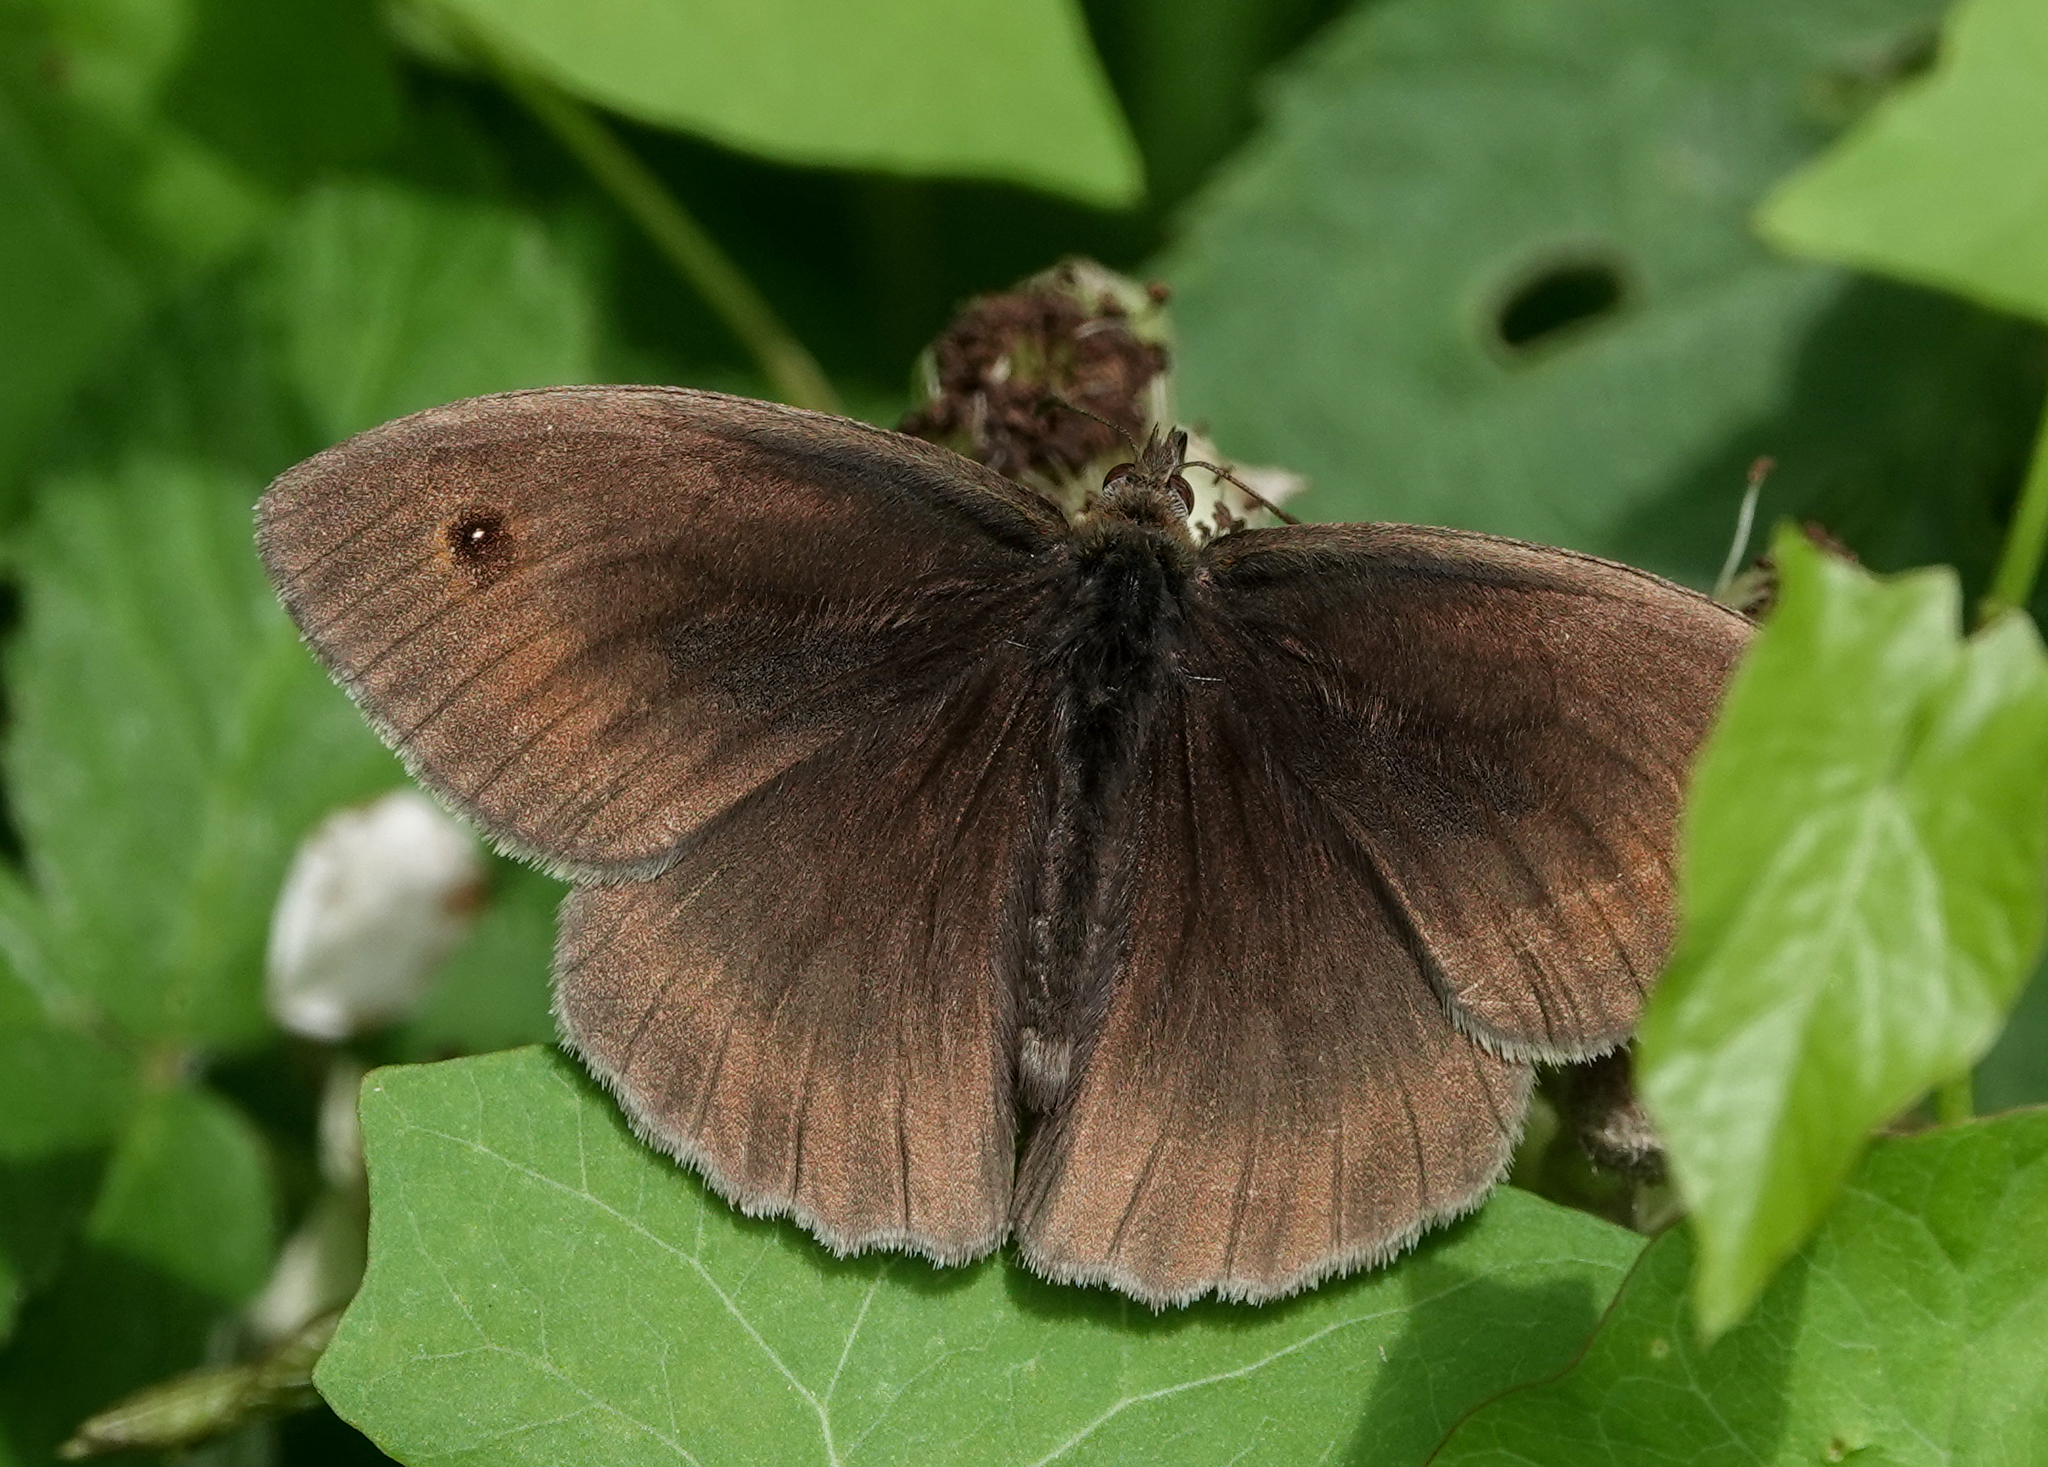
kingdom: Animalia
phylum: Arthropoda
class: Insecta
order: Lepidoptera
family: Nymphalidae
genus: Maniola
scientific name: Maniola jurtina
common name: Meadow brown
